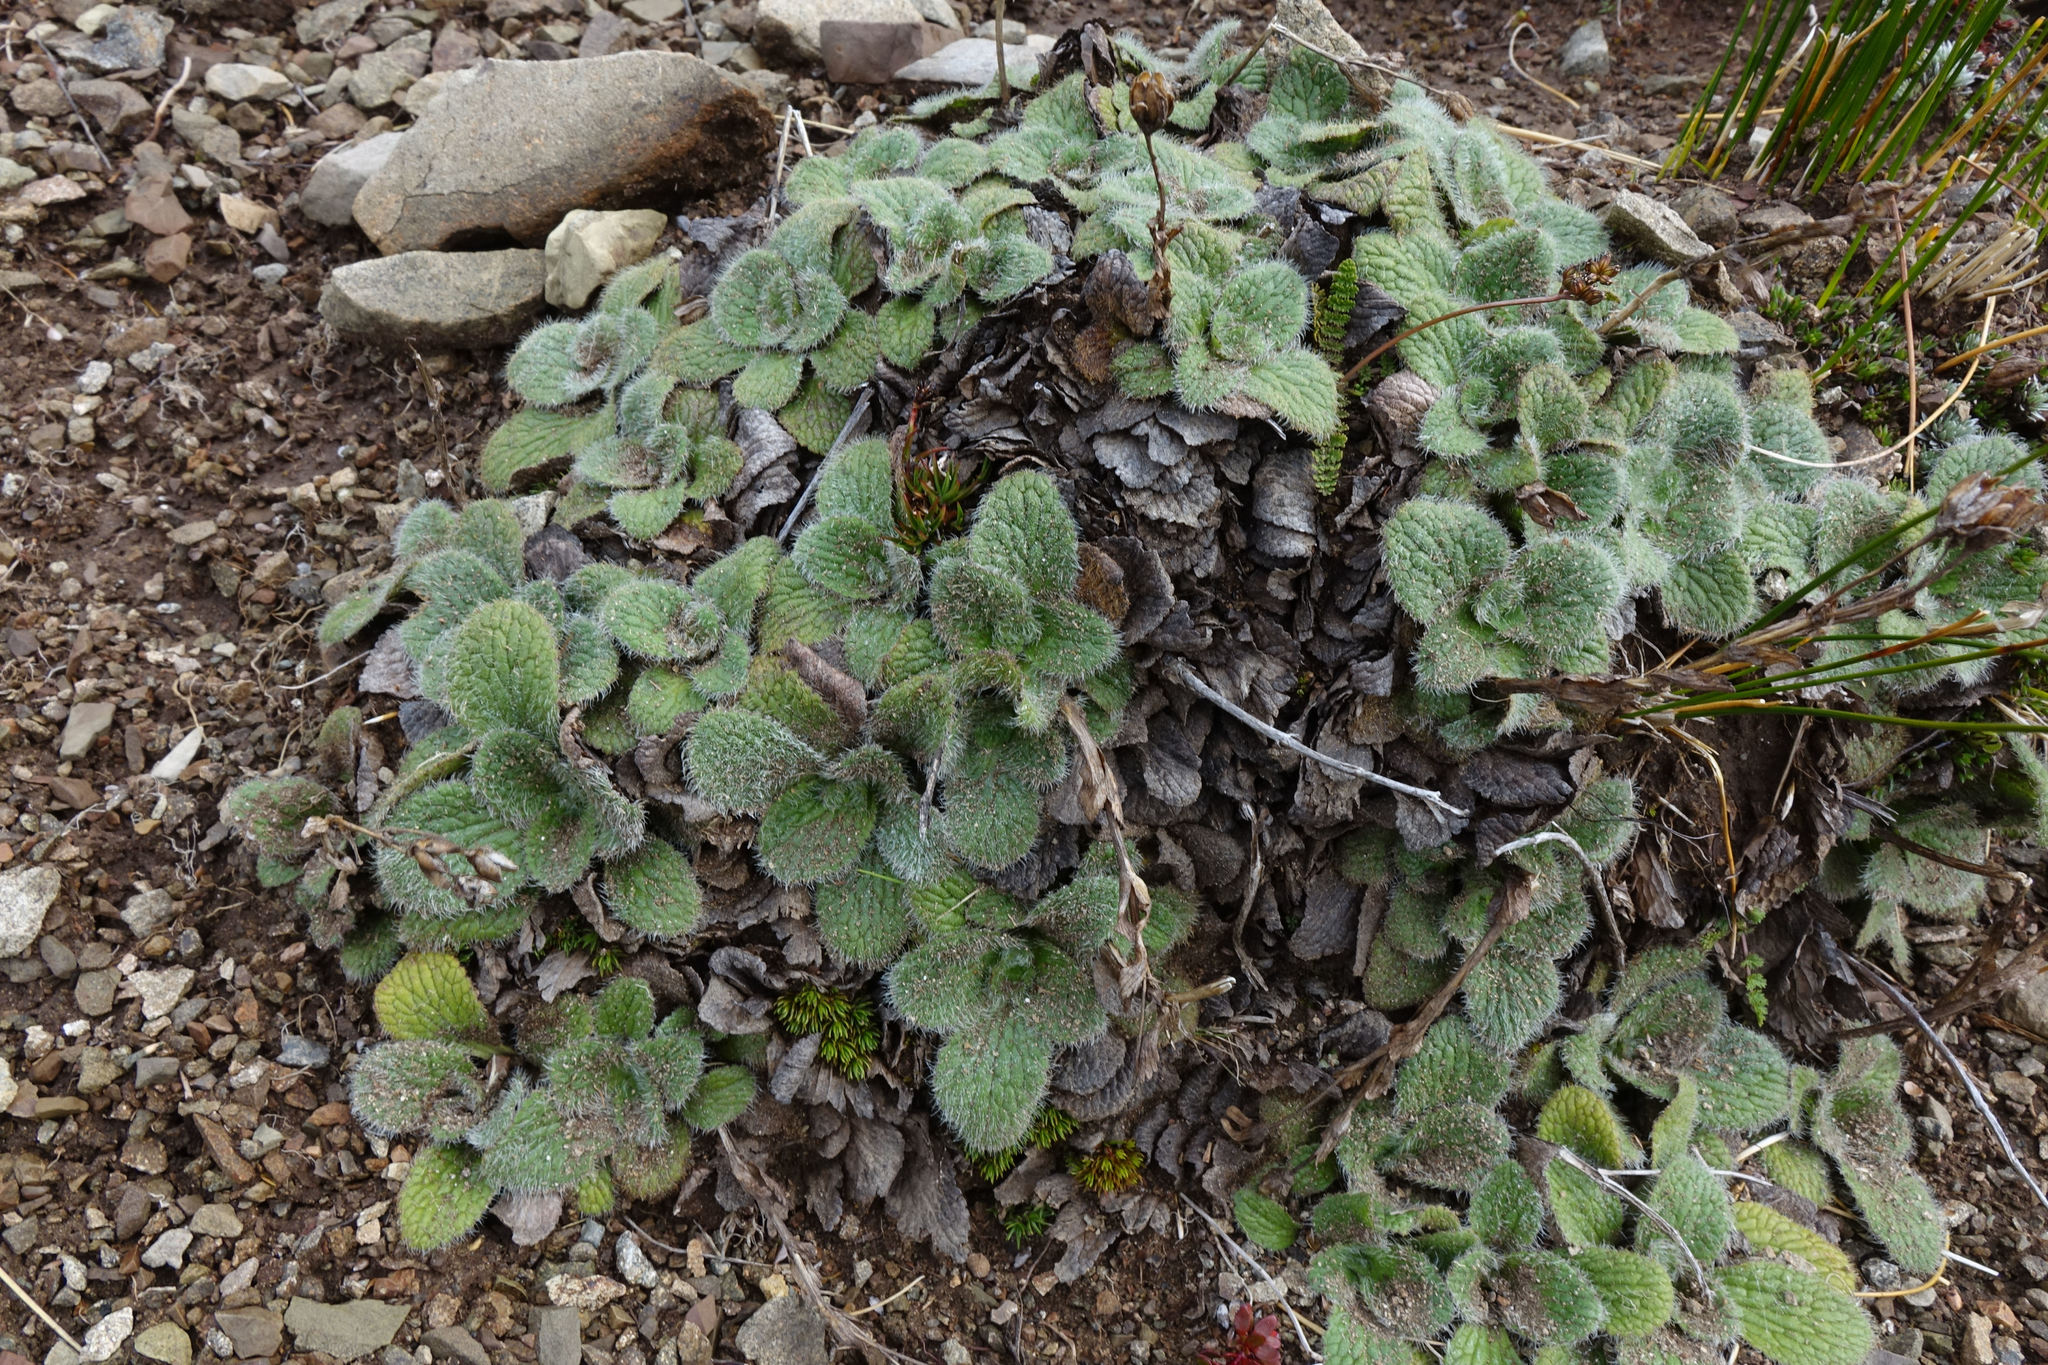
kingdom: Plantae
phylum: Tracheophyta
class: Magnoliopsida
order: Lamiales
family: Plantaginaceae
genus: Ourisia
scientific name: Ourisia sessilifolia
